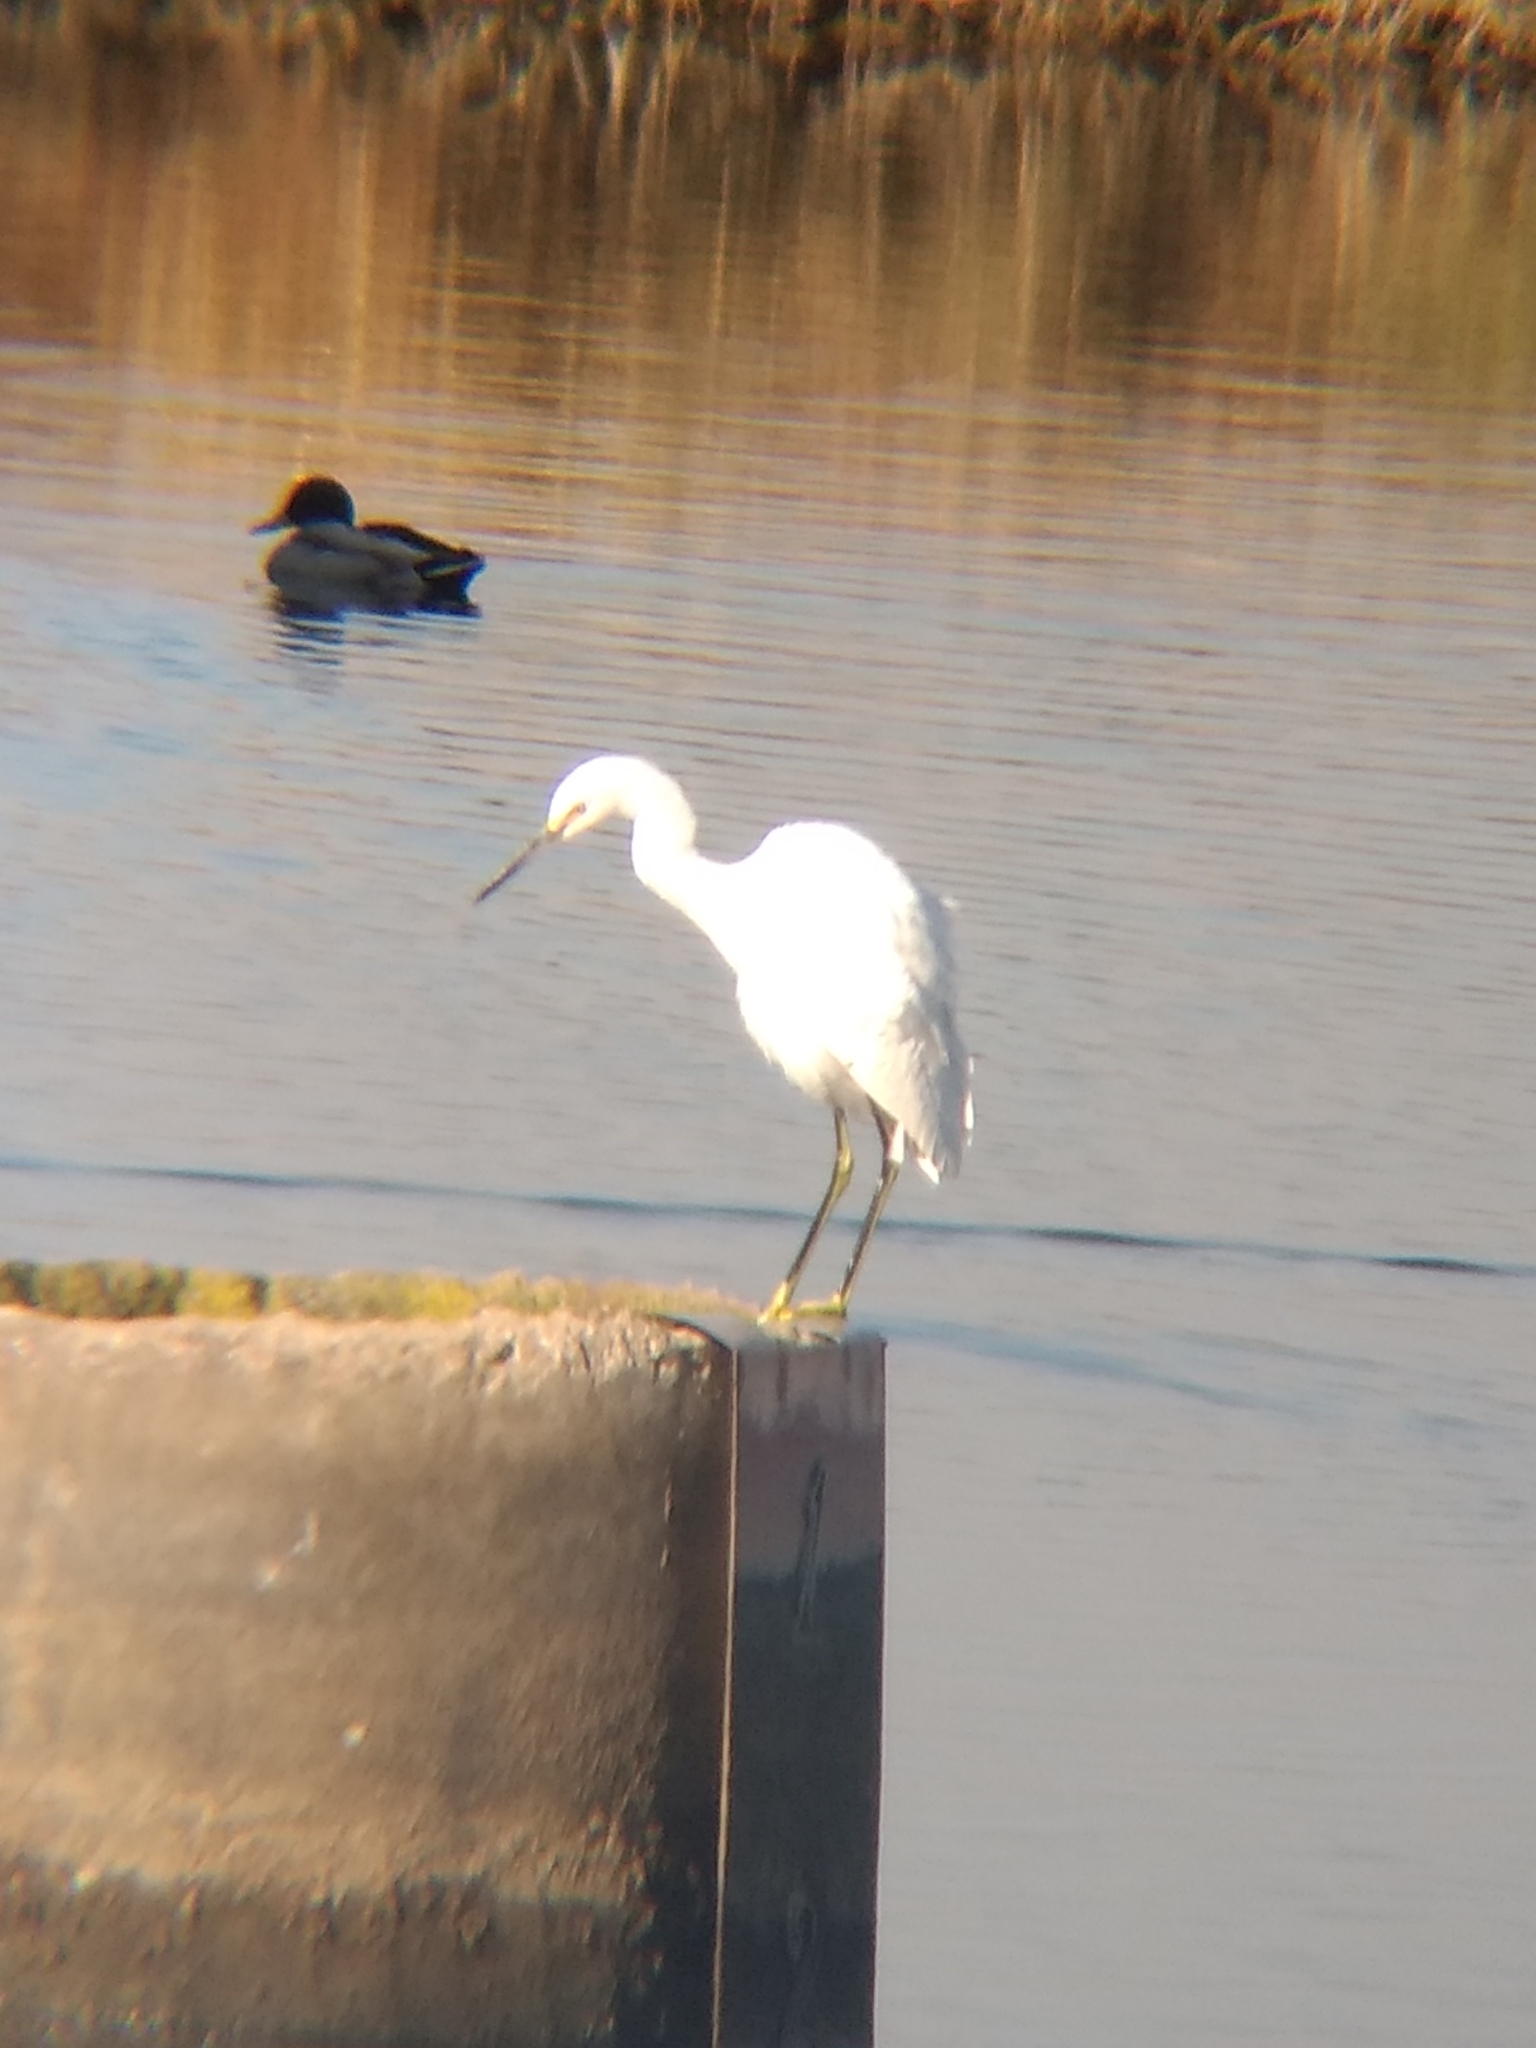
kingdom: Animalia
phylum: Chordata
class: Aves
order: Pelecaniformes
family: Ardeidae
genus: Egretta
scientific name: Egretta thula
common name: Snowy egret
